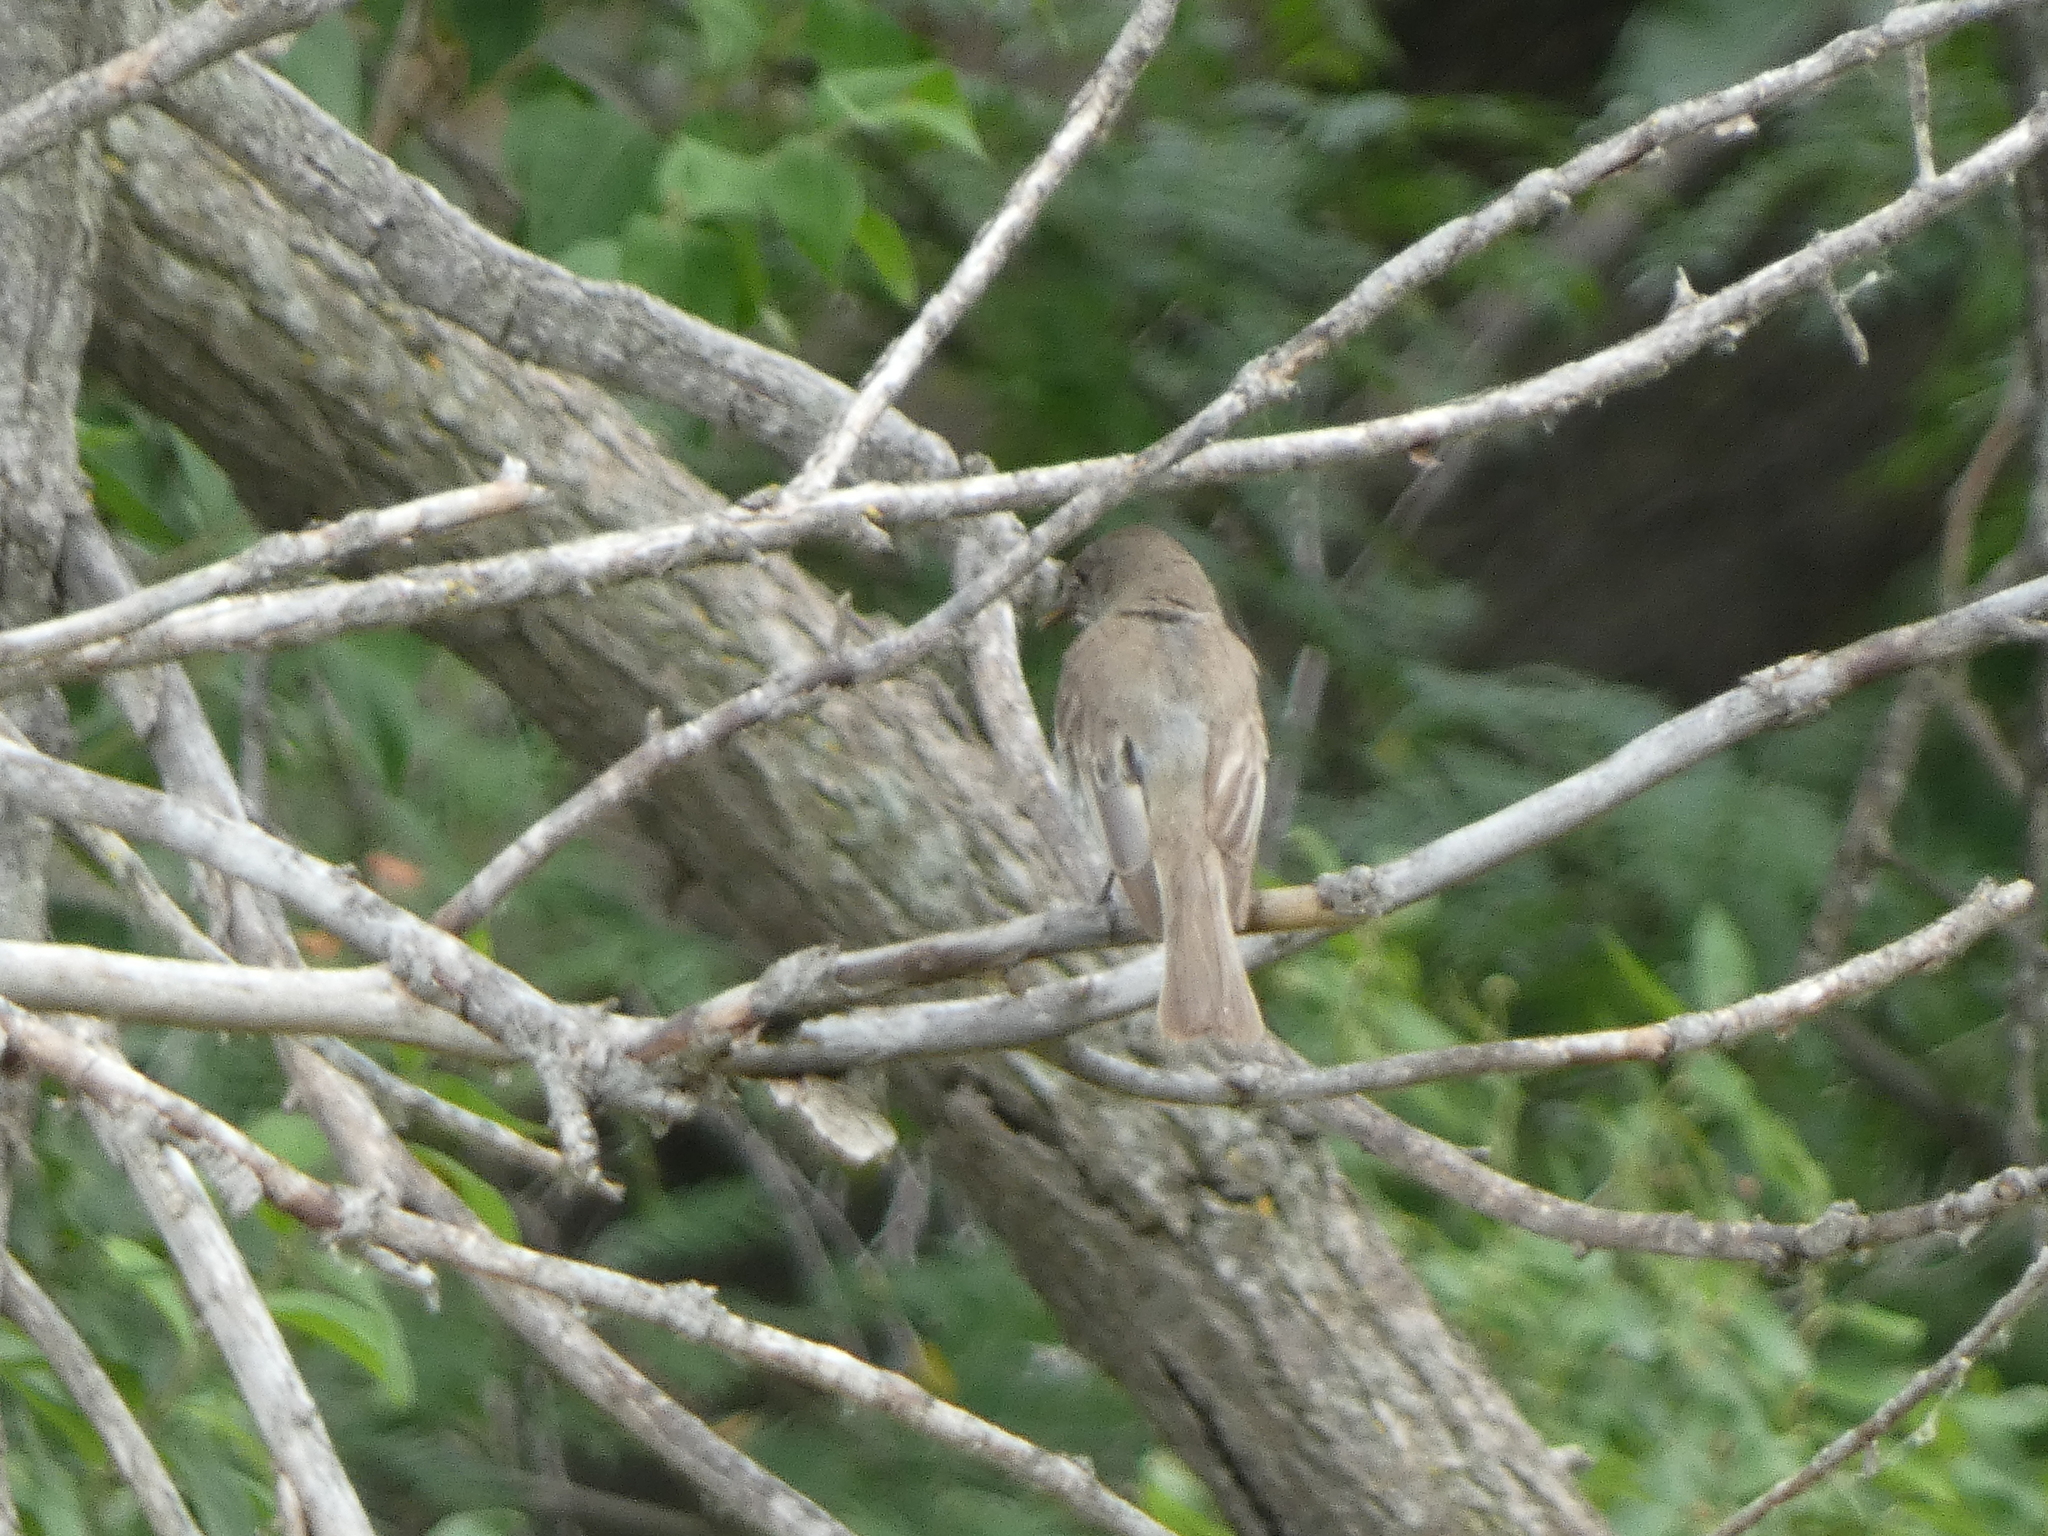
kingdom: Animalia
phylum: Chordata
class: Aves
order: Passeriformes
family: Tyrannidae
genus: Sayornis
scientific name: Sayornis phoebe
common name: Eastern phoebe
